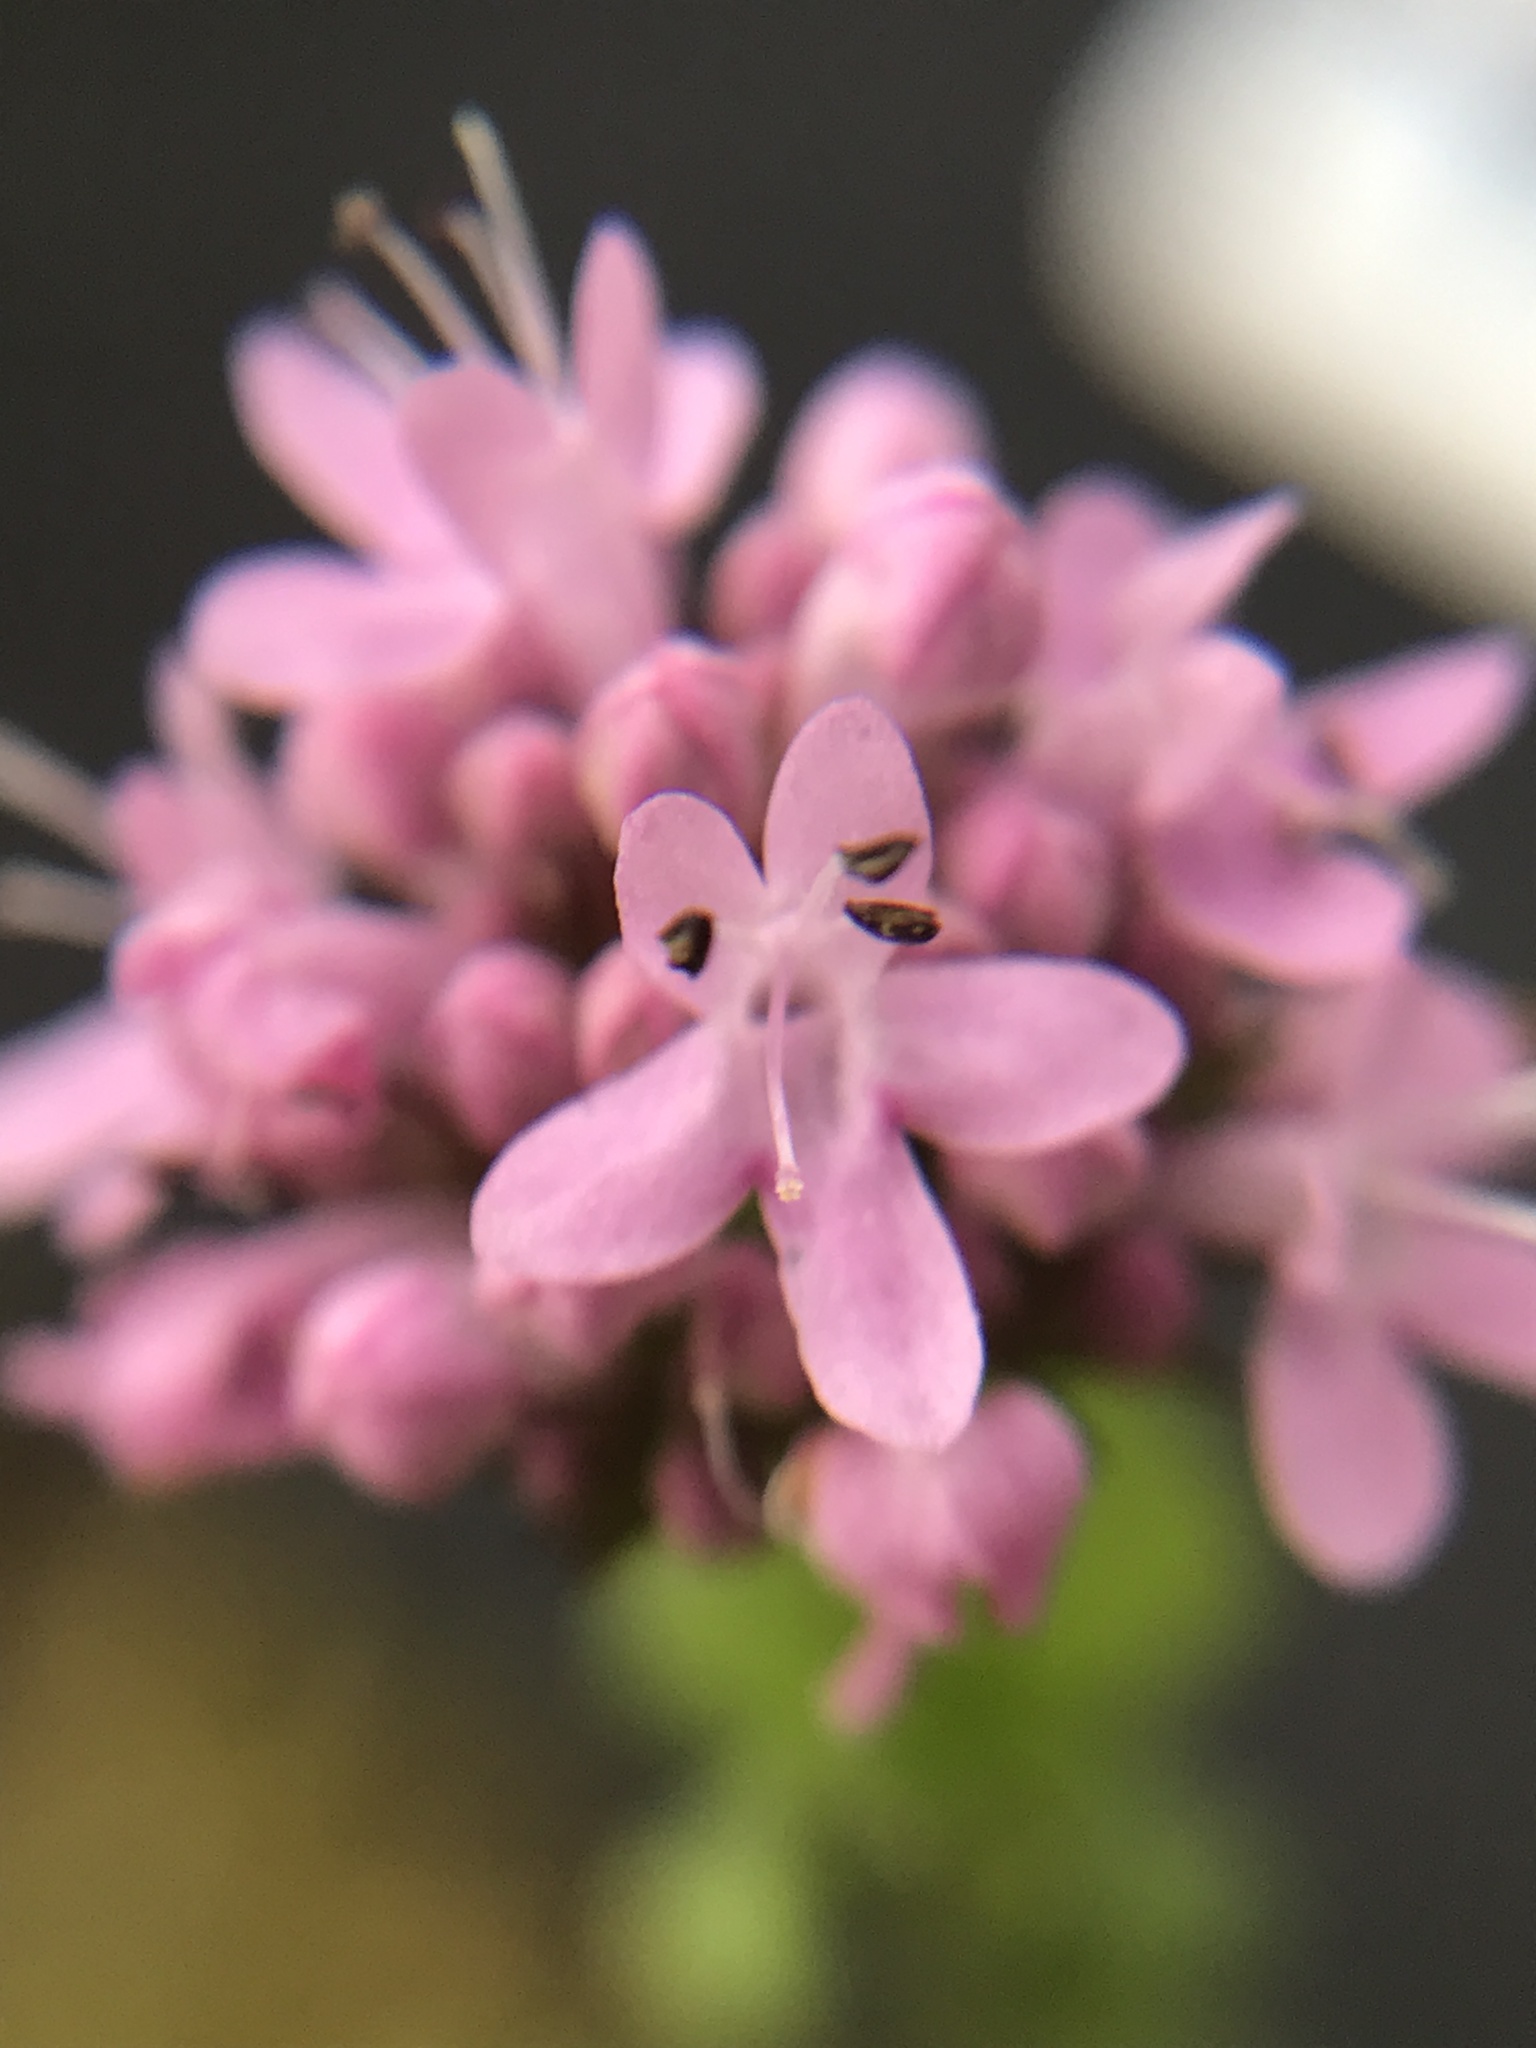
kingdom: Plantae
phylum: Tracheophyta
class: Magnoliopsida
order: Dipsacales
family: Caprifoliaceae
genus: Plectritis
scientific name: Plectritis congesta
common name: Pink plectritis
